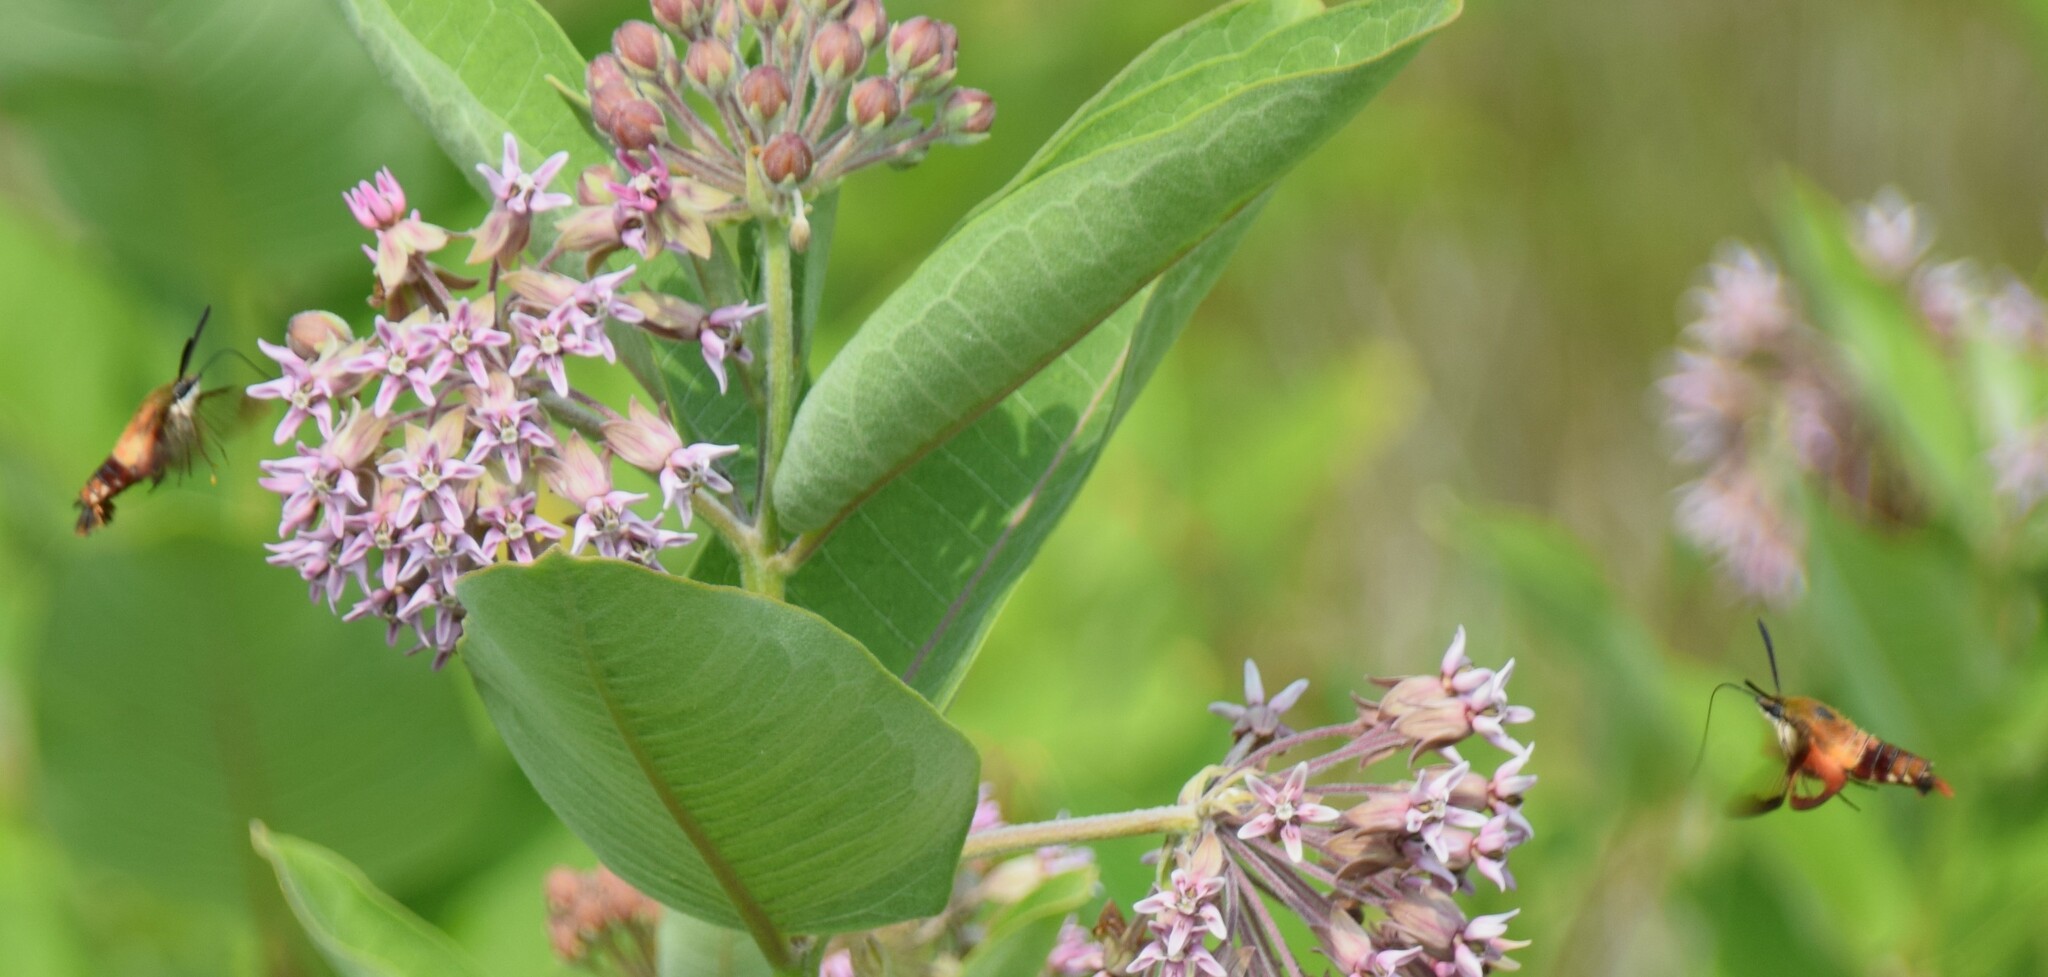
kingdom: Animalia
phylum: Arthropoda
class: Insecta
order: Lepidoptera
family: Sphingidae
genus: Hemaris
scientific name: Hemaris thysbe
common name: Common clear-wing
